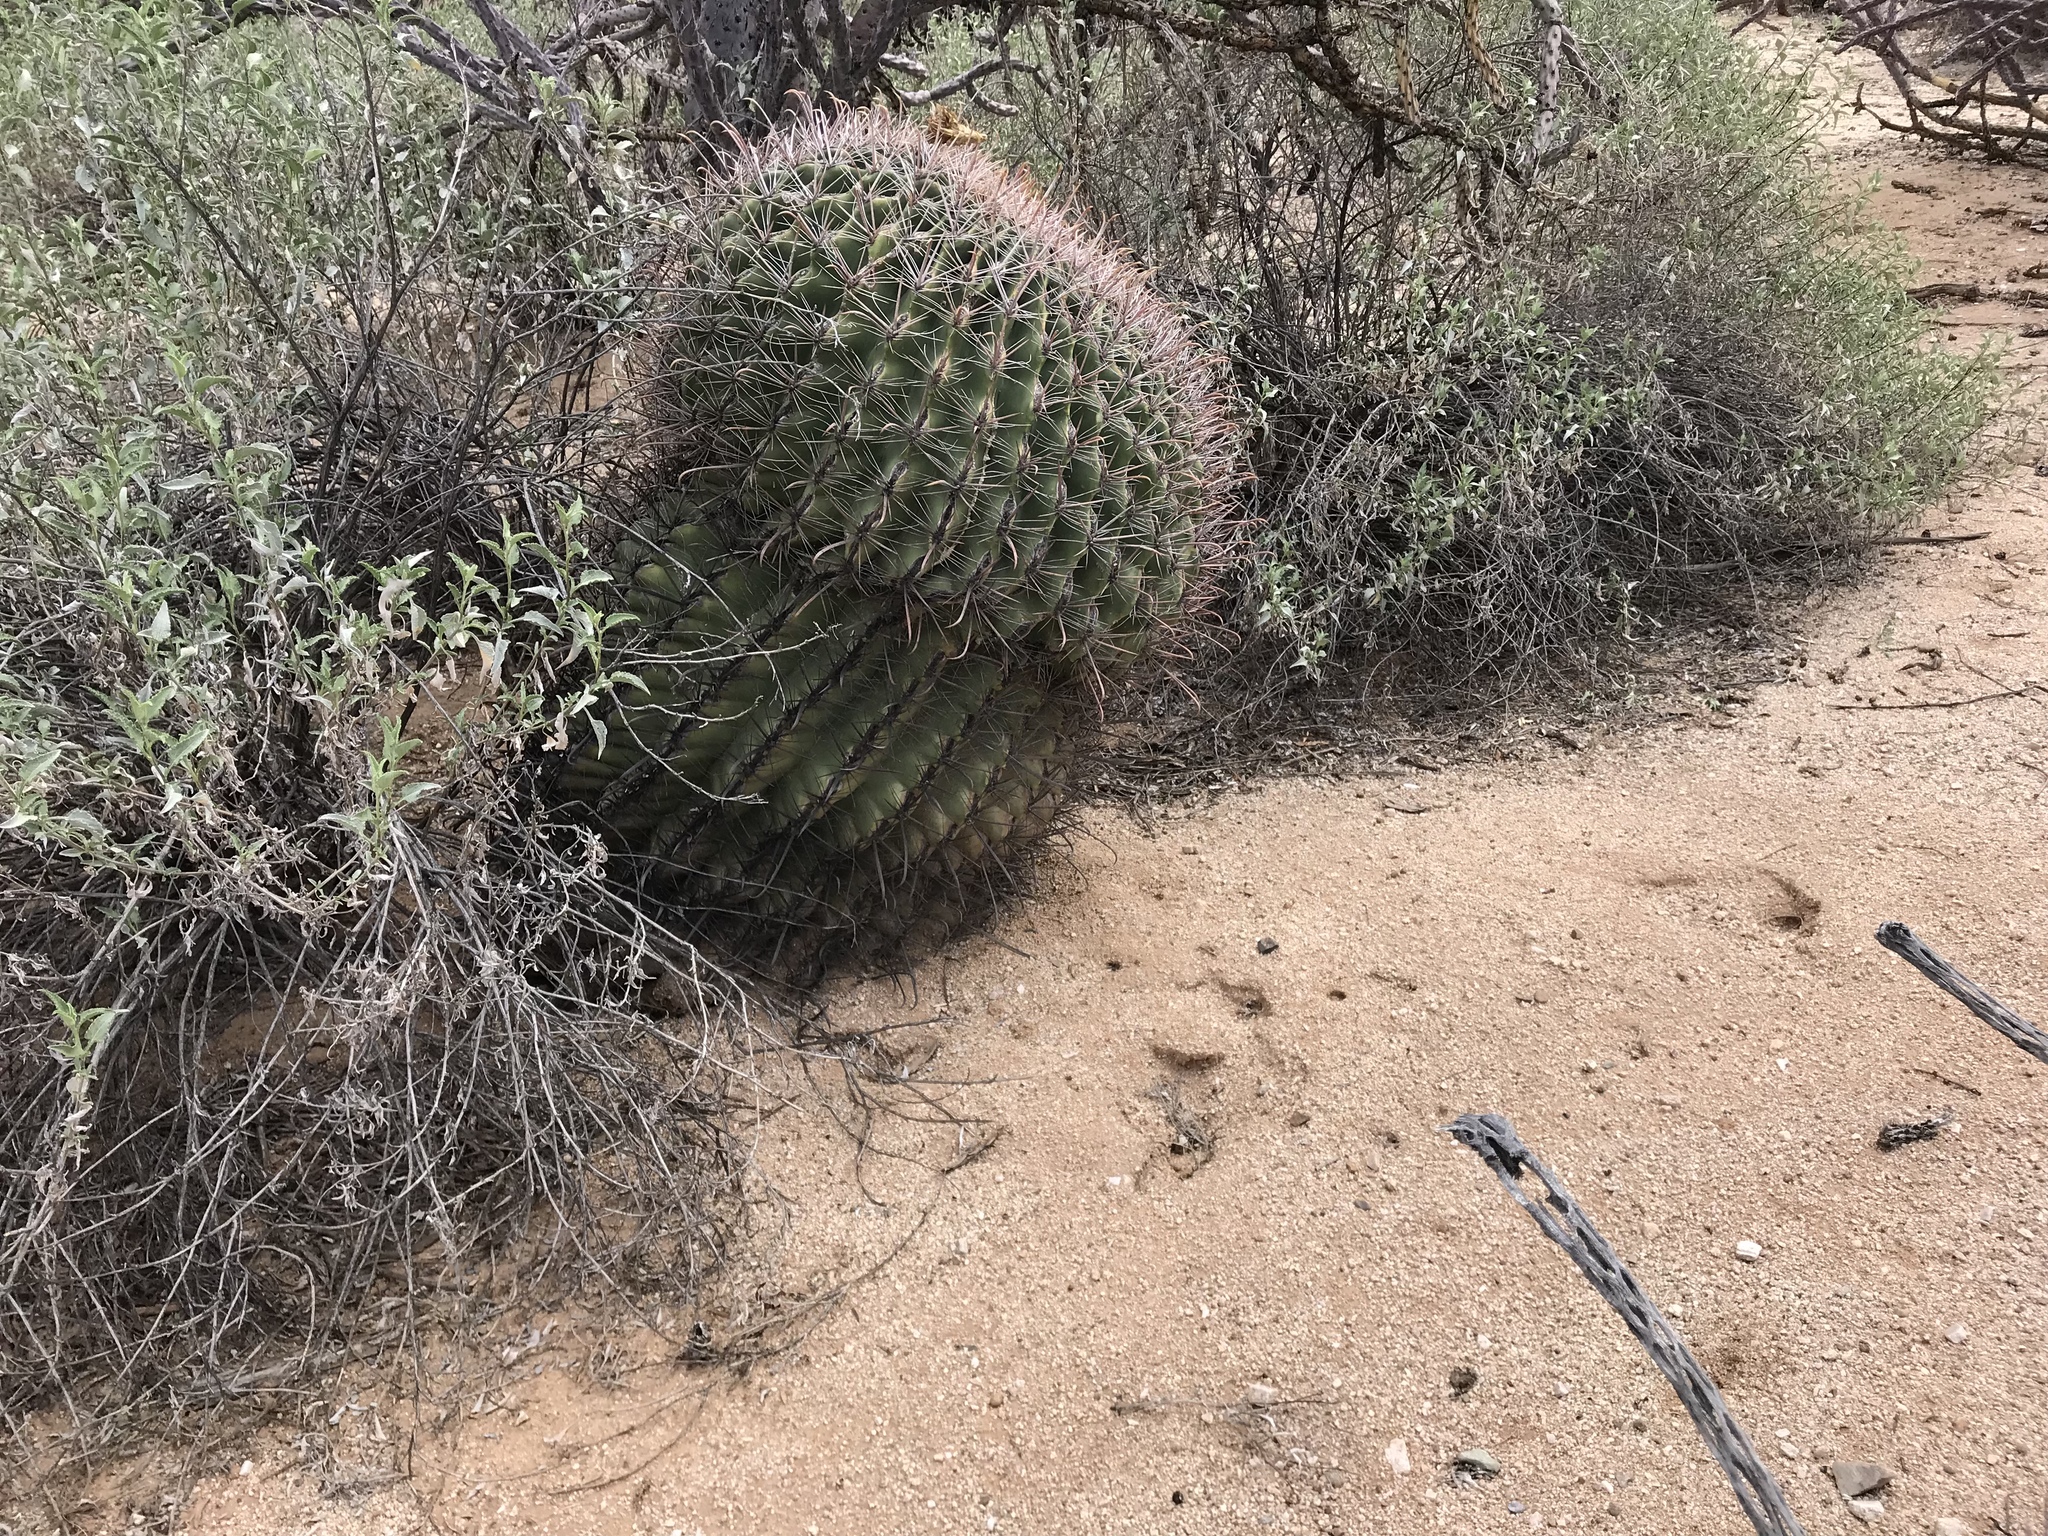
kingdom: Plantae
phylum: Tracheophyta
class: Magnoliopsida
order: Caryophyllales
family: Cactaceae
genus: Ferocactus
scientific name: Ferocactus wislizeni
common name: Candy barrel cactus
